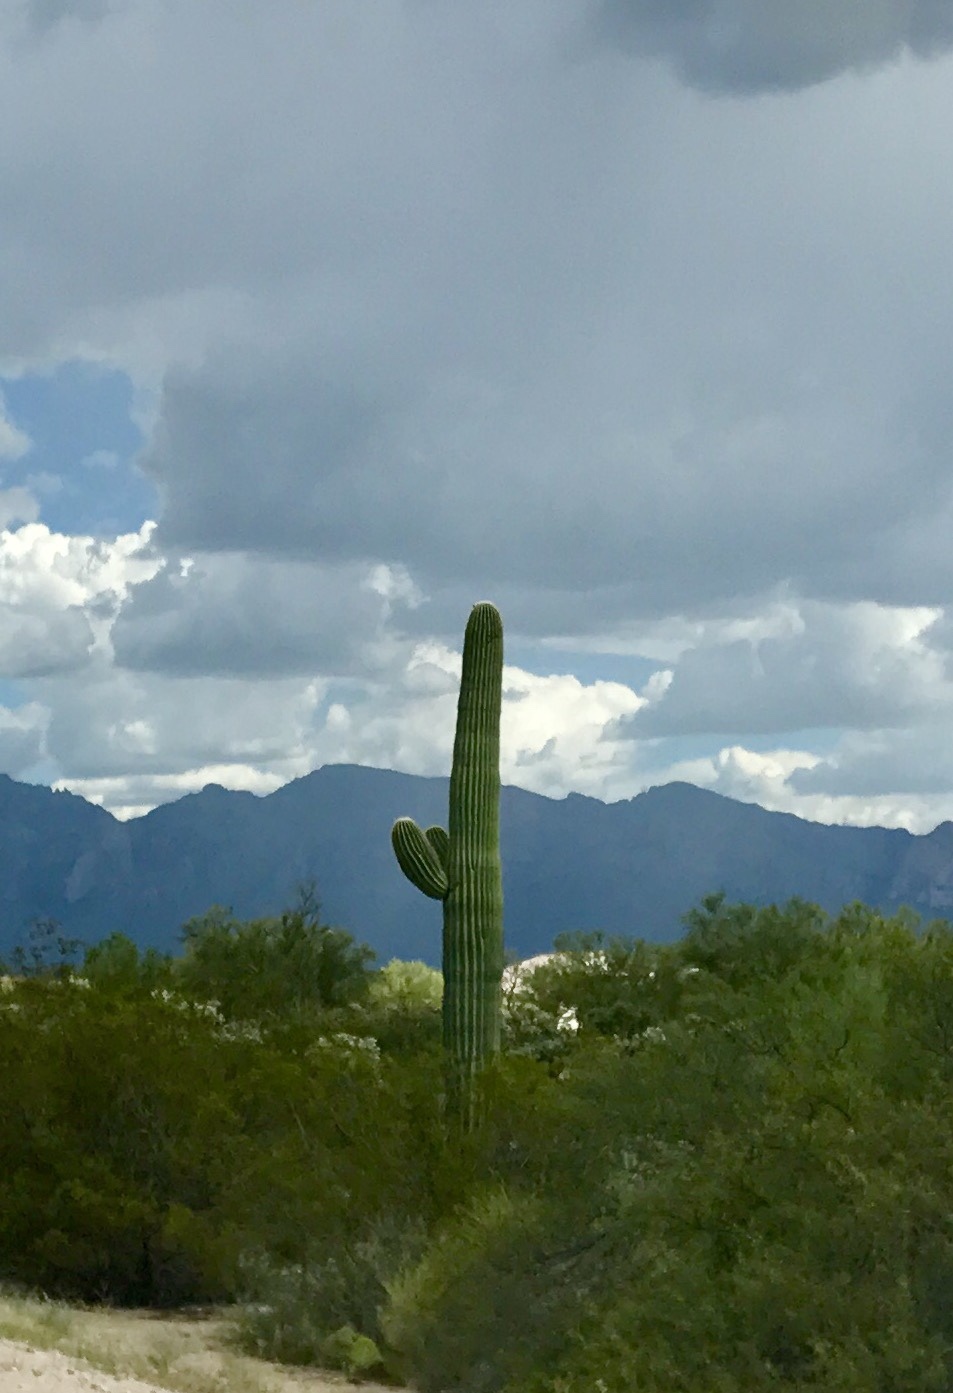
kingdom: Plantae
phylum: Tracheophyta
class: Magnoliopsida
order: Caryophyllales
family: Cactaceae
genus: Carnegiea
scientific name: Carnegiea gigantea
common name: Saguaro
